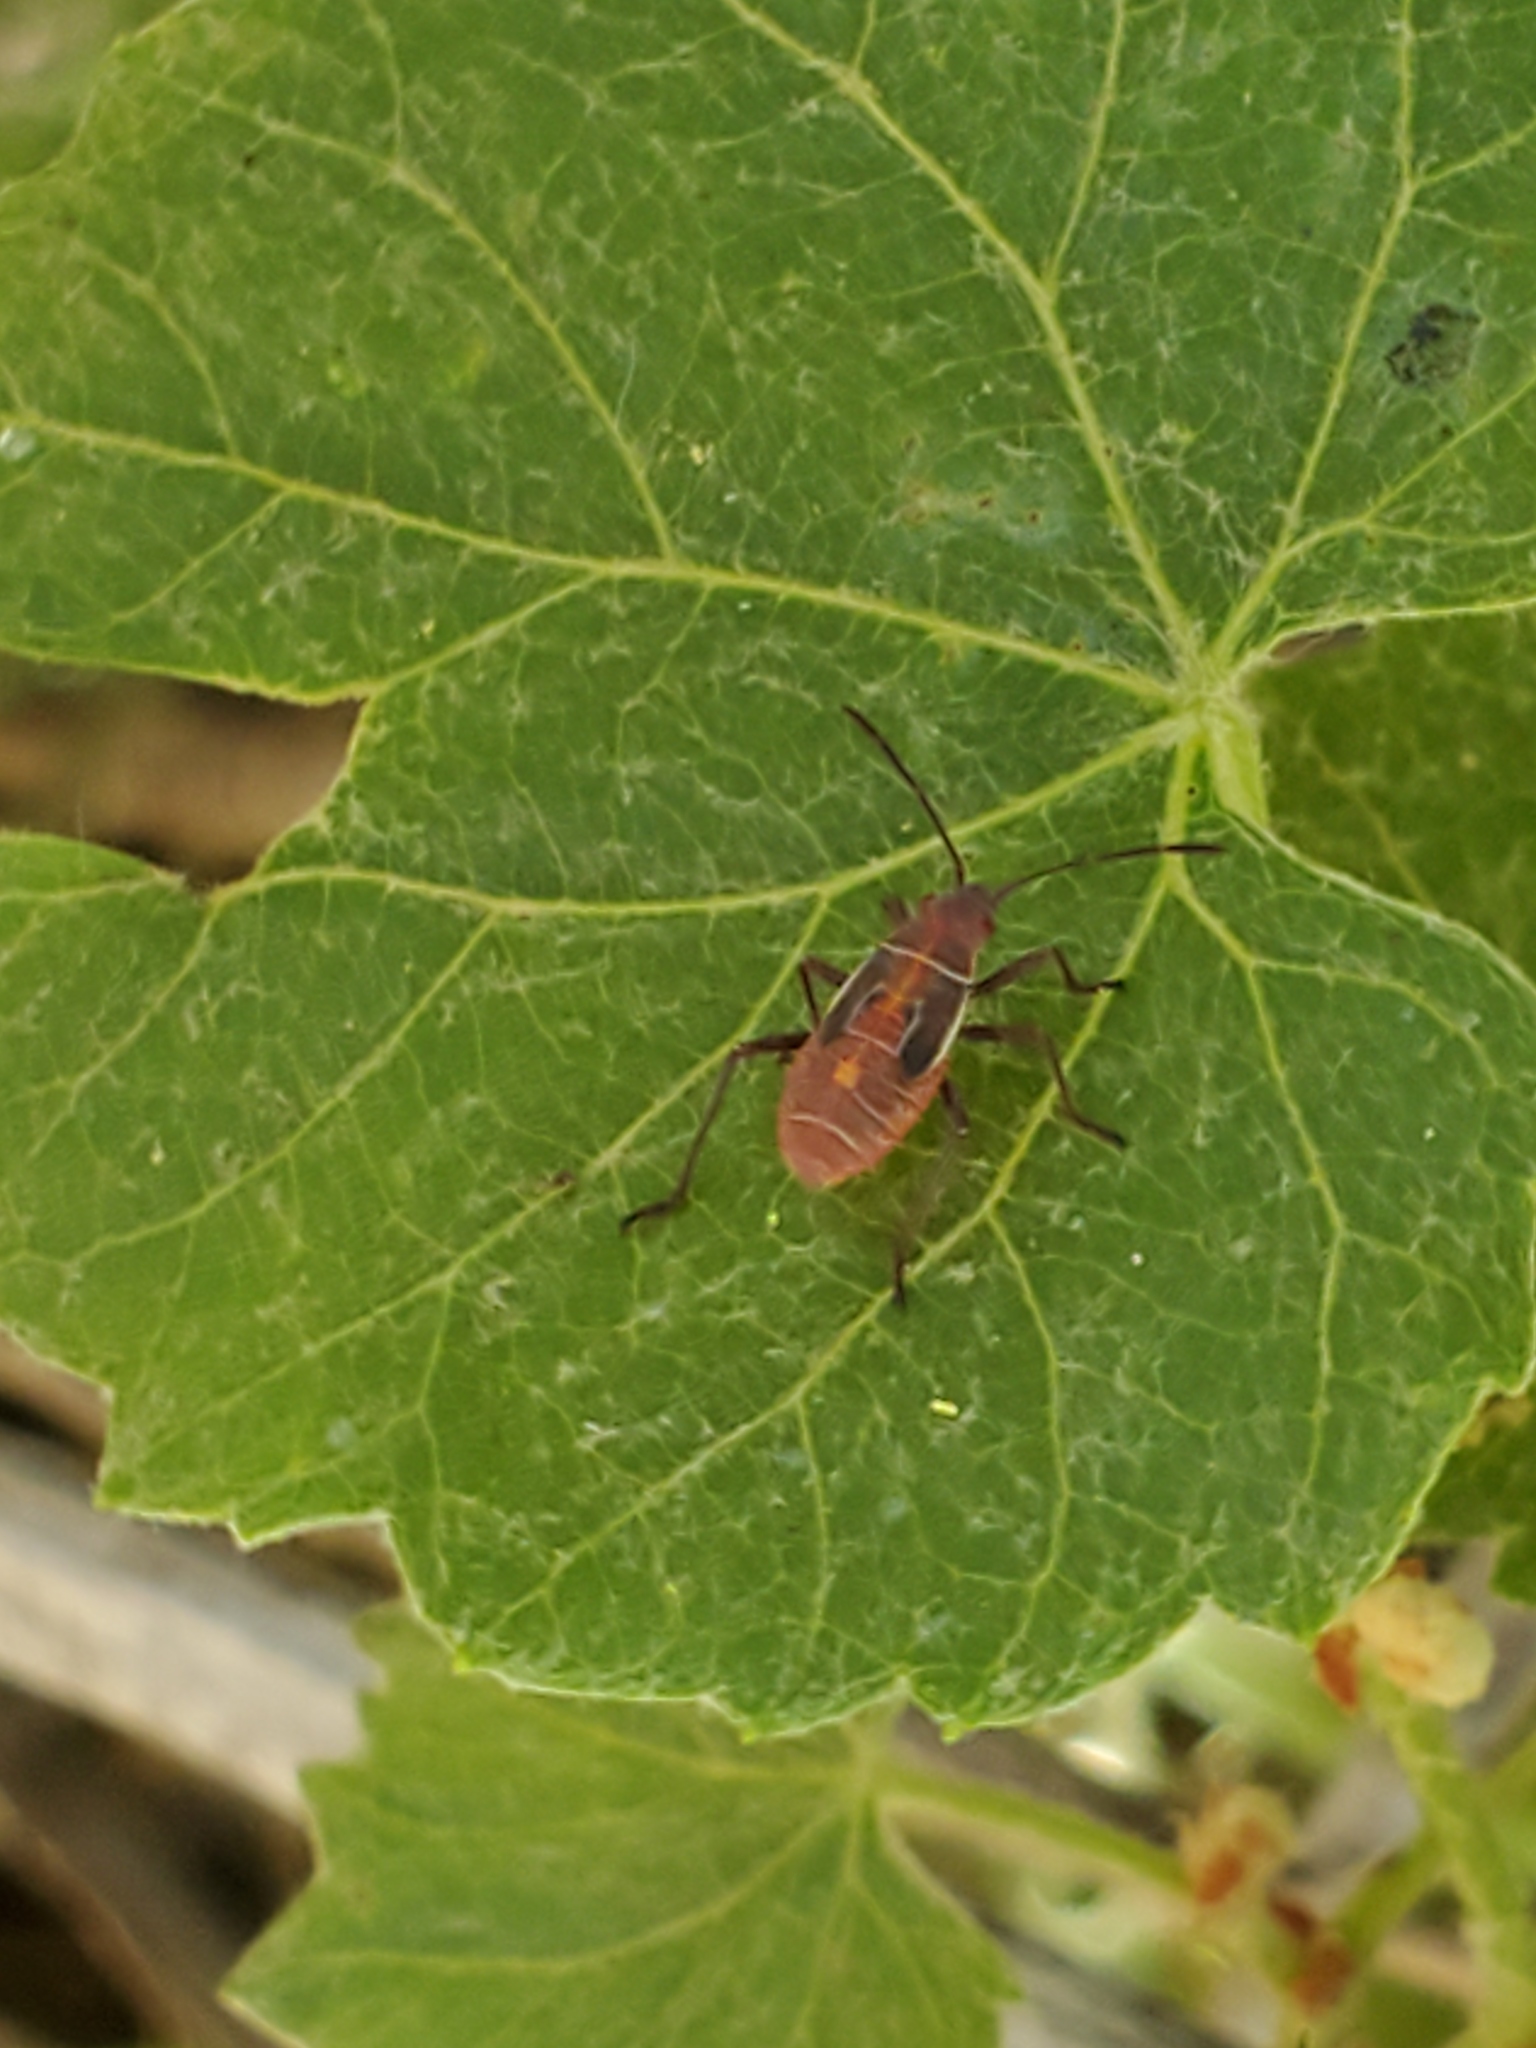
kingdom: Animalia
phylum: Arthropoda
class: Insecta
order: Hemiptera
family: Rhopalidae
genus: Boisea
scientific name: Boisea rubrolineata
